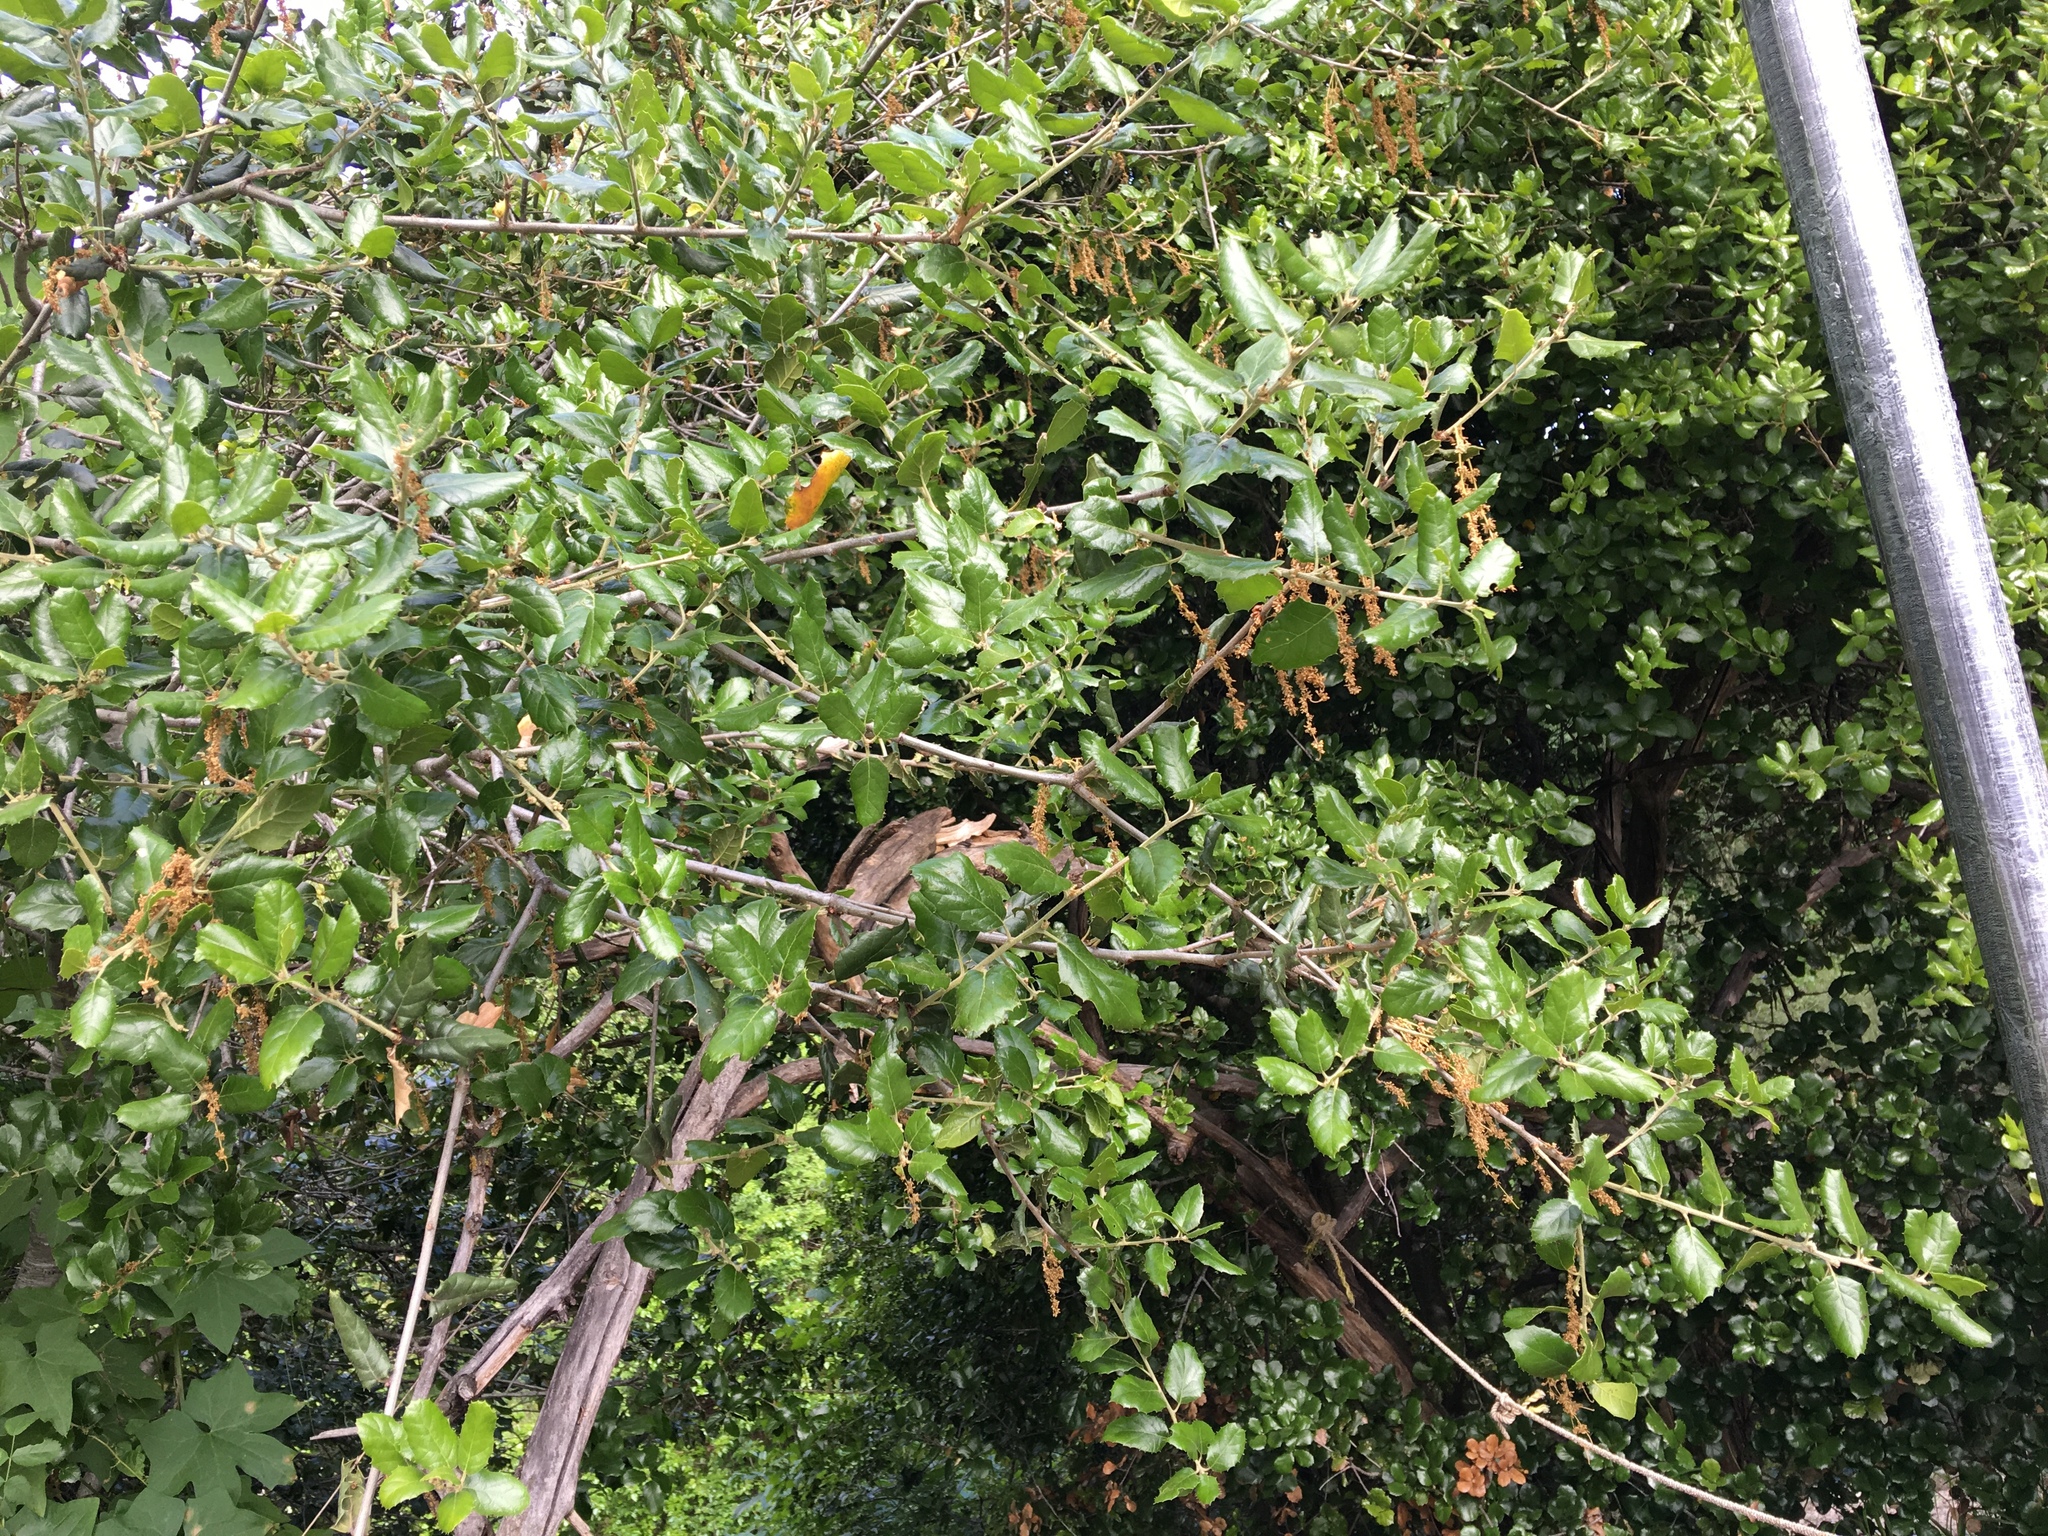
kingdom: Plantae
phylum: Tracheophyta
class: Magnoliopsida
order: Fagales
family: Fagaceae
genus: Quercus
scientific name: Quercus agrifolia
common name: California live oak
